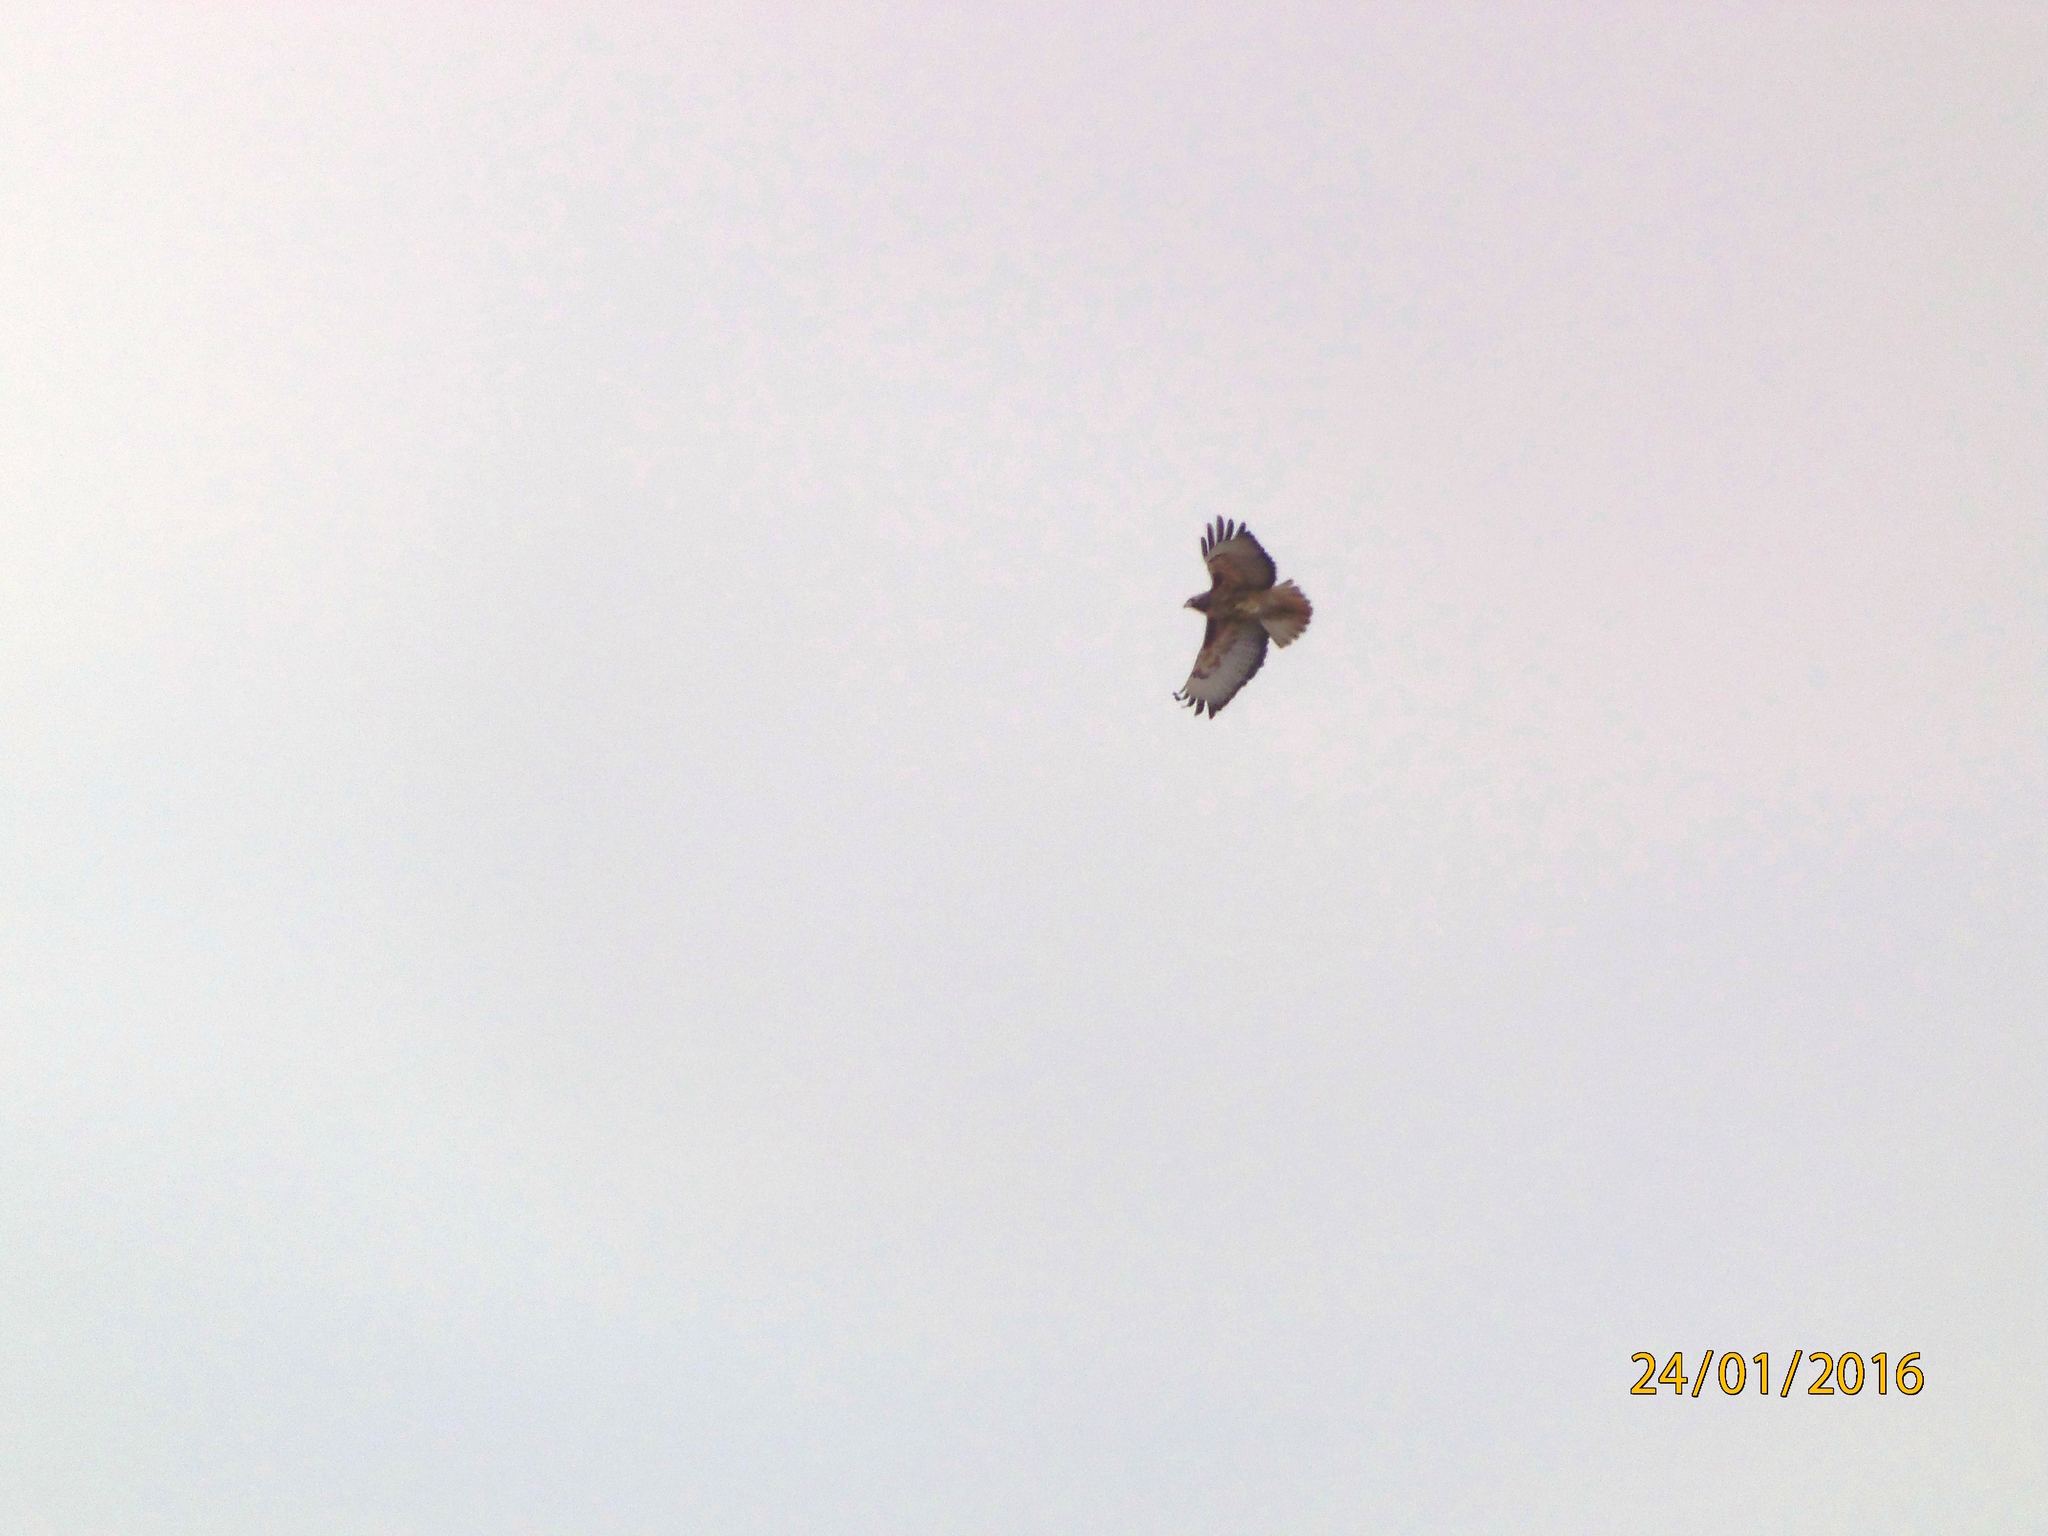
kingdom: Animalia
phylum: Chordata
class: Aves
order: Accipitriformes
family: Accipitridae
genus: Buteo
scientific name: Buteo jamaicensis
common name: Red-tailed hawk
